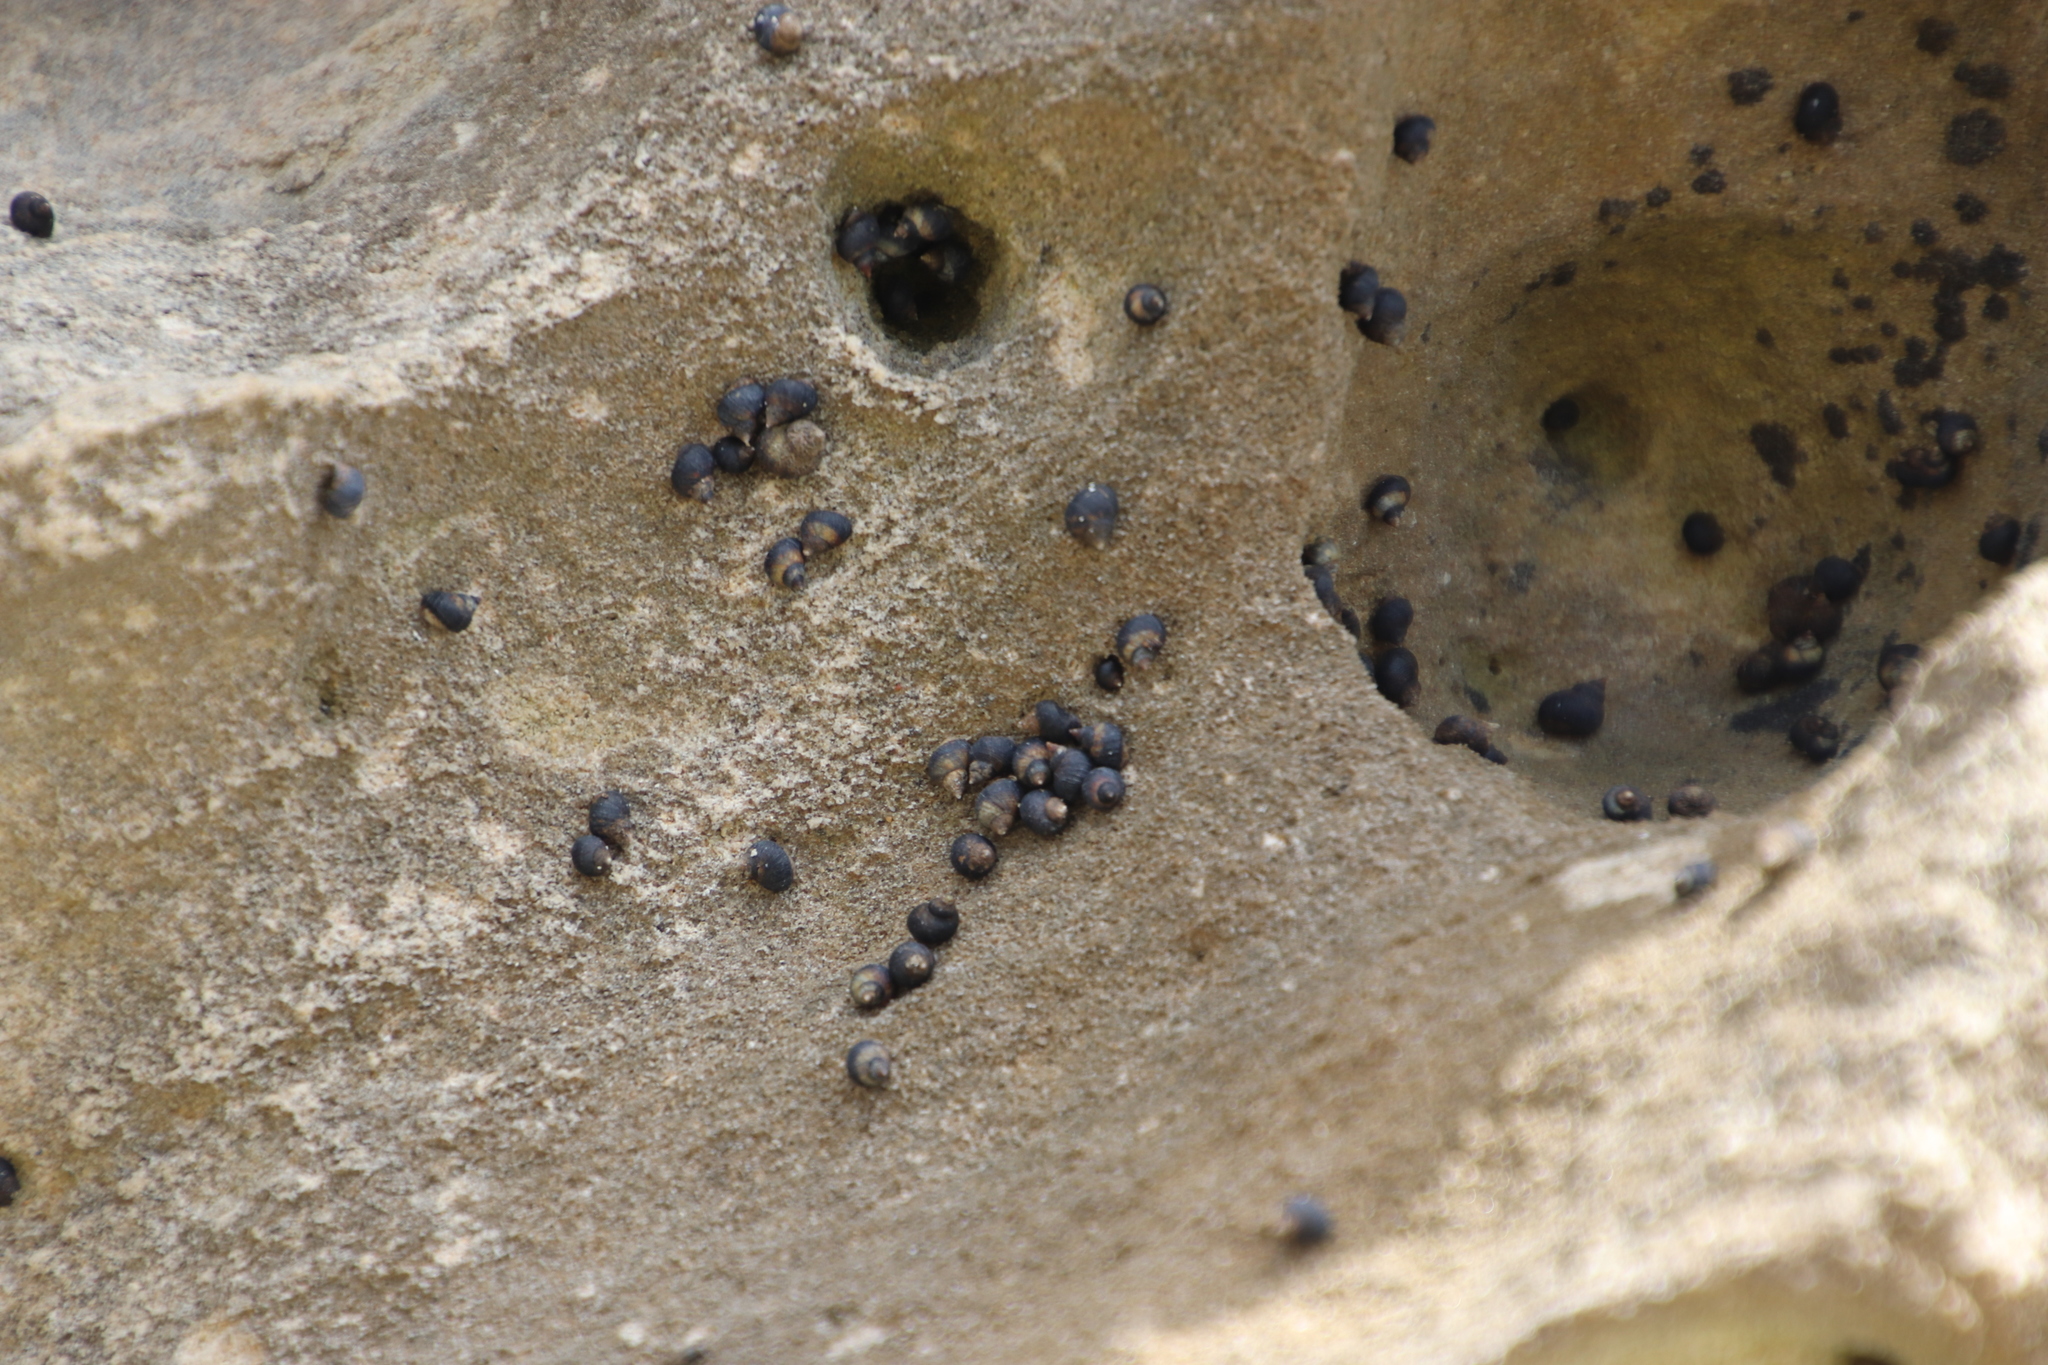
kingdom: Animalia
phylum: Mollusca
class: Gastropoda
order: Littorinimorpha
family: Littorinidae
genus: Afrolittorina
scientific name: Afrolittorina knysnaensis
